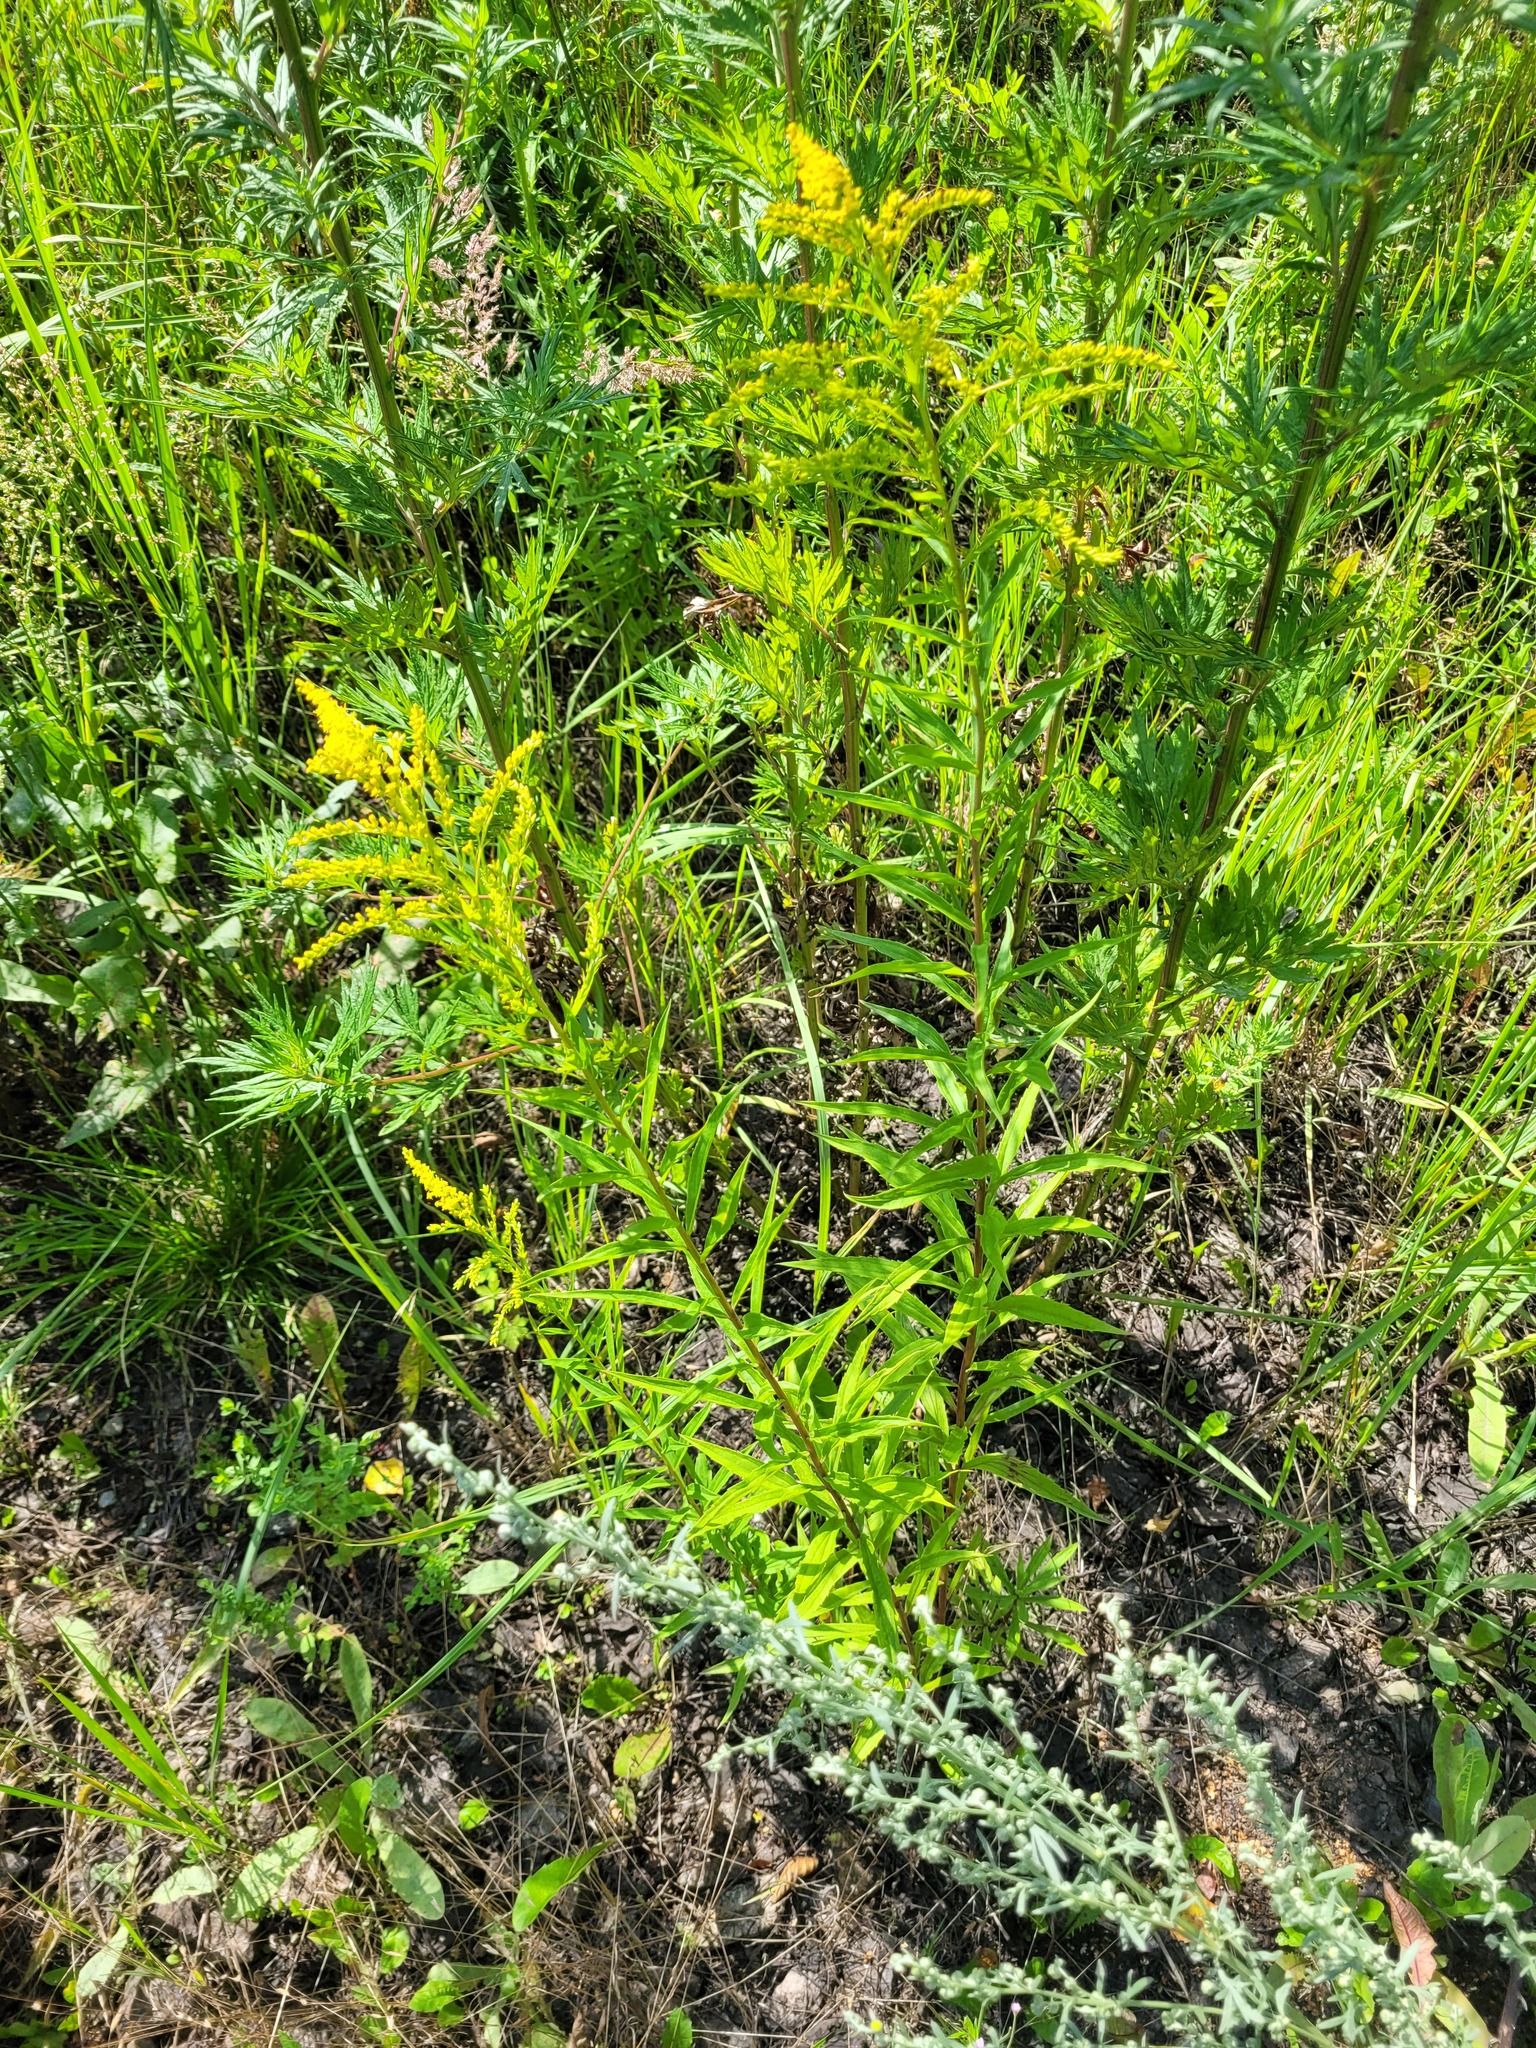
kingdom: Plantae
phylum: Tracheophyta
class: Magnoliopsida
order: Asterales
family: Asteraceae
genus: Solidago
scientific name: Solidago canadensis
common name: Canada goldenrod
